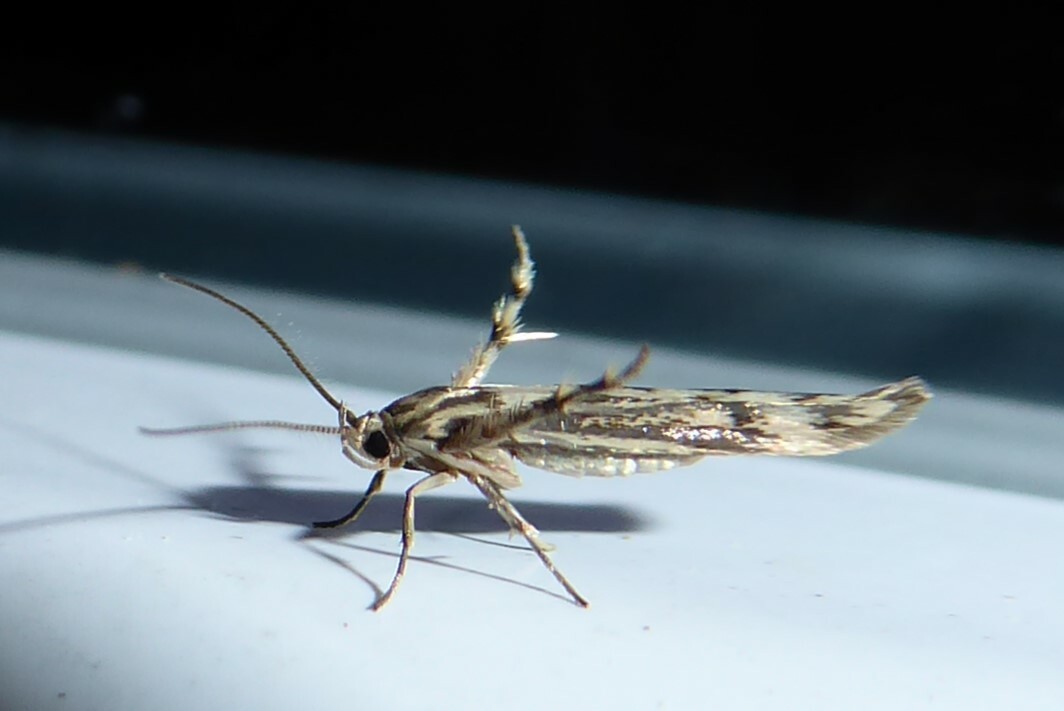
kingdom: Animalia
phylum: Arthropoda
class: Insecta
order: Lepidoptera
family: Stathmopodidae
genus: Stathmopoda
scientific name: Stathmopoda plumbiflua
